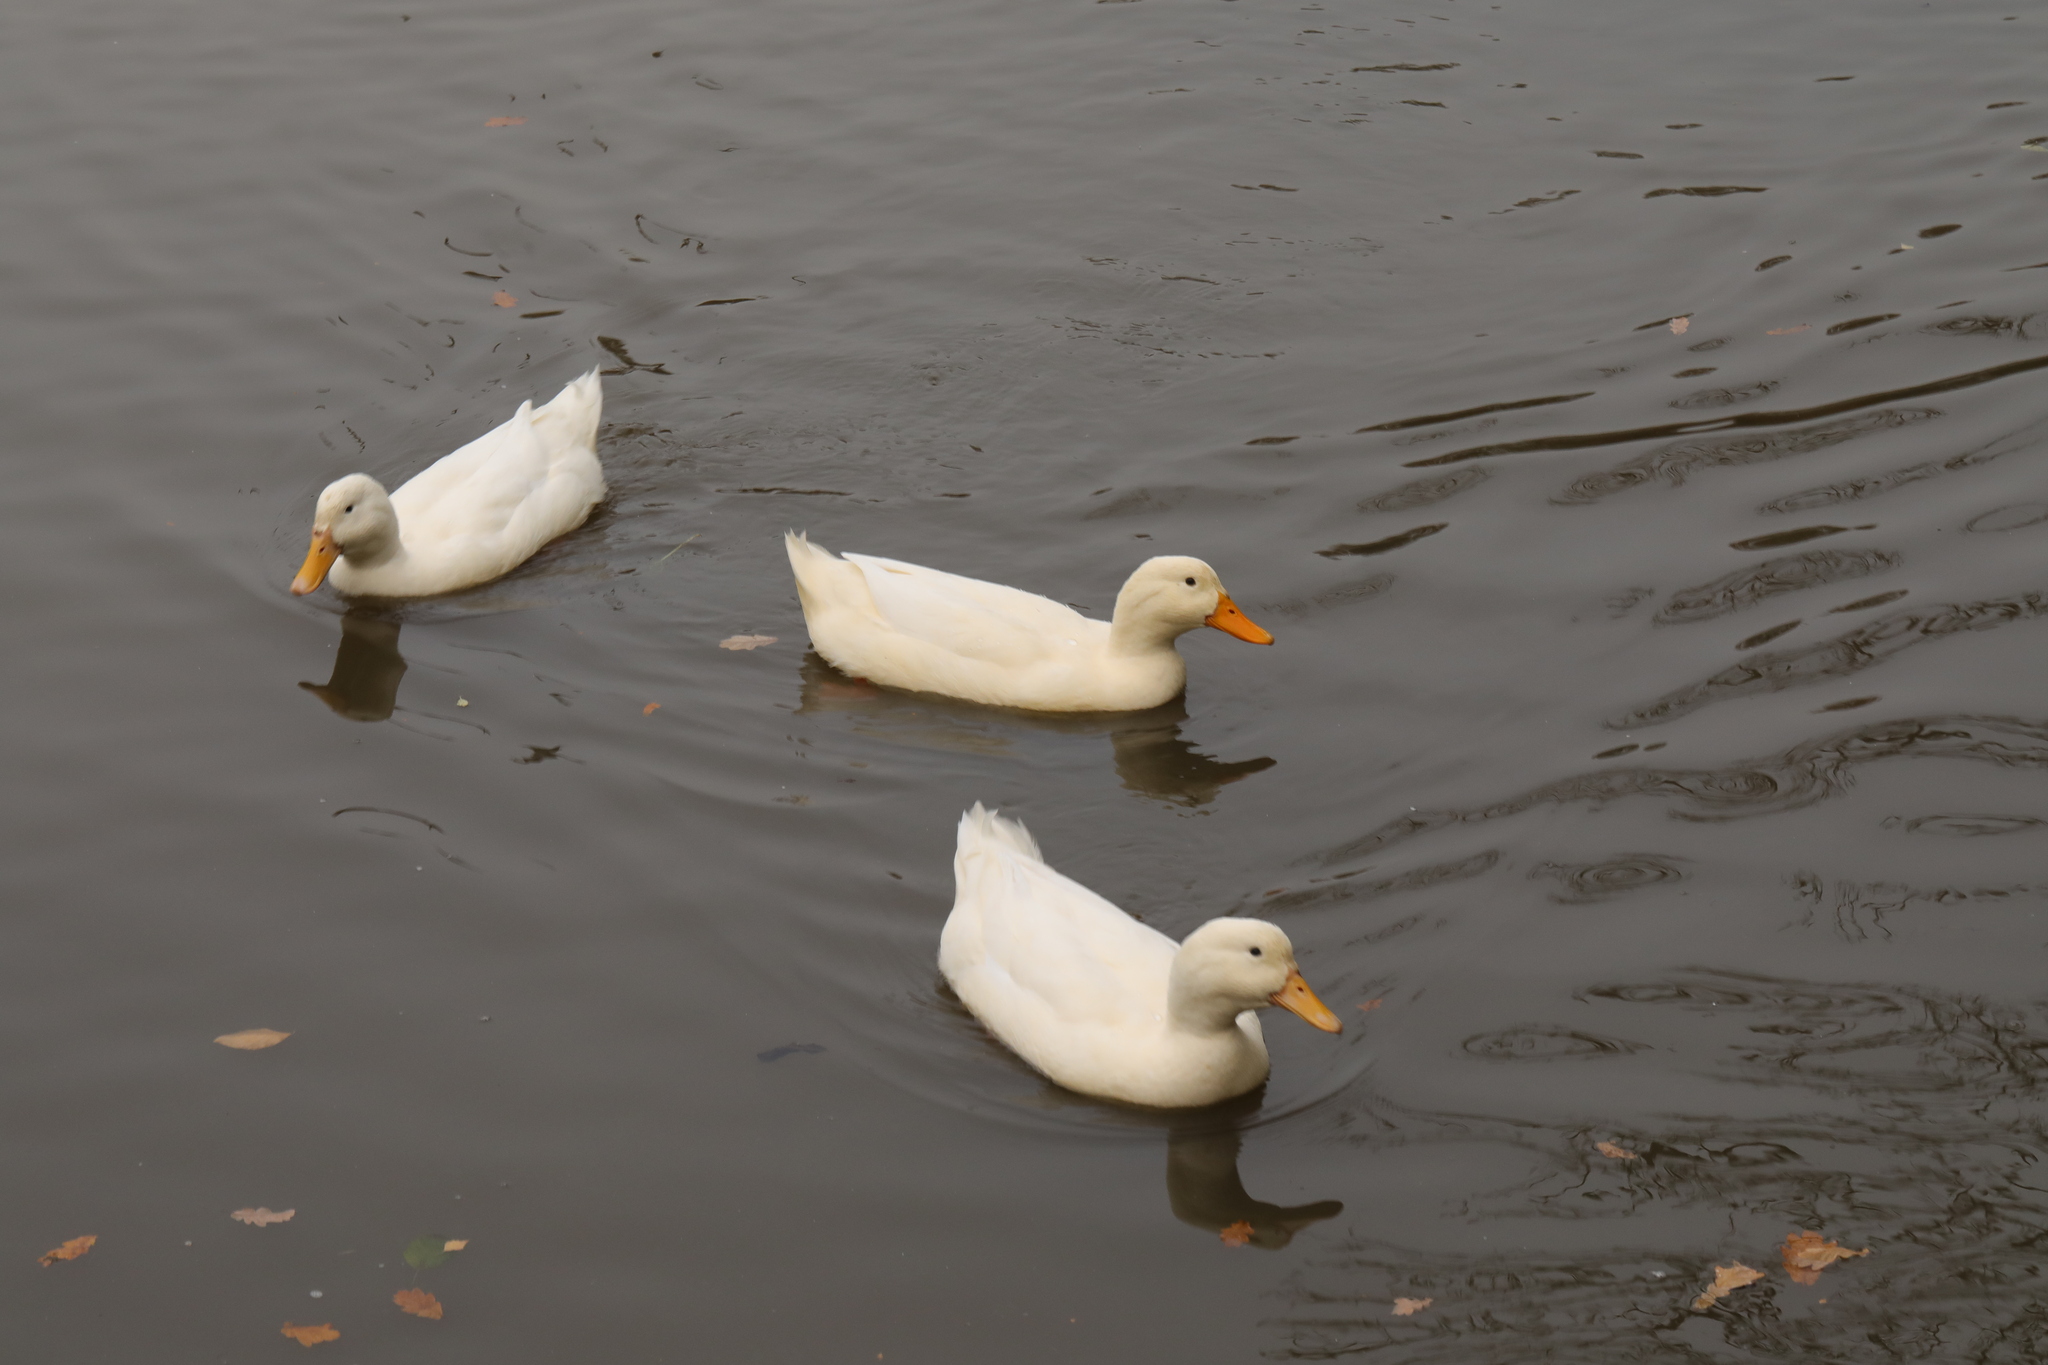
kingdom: Animalia
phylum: Chordata
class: Aves
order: Anseriformes
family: Anatidae
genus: Anas
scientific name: Anas platyrhynchos
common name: Mallard
